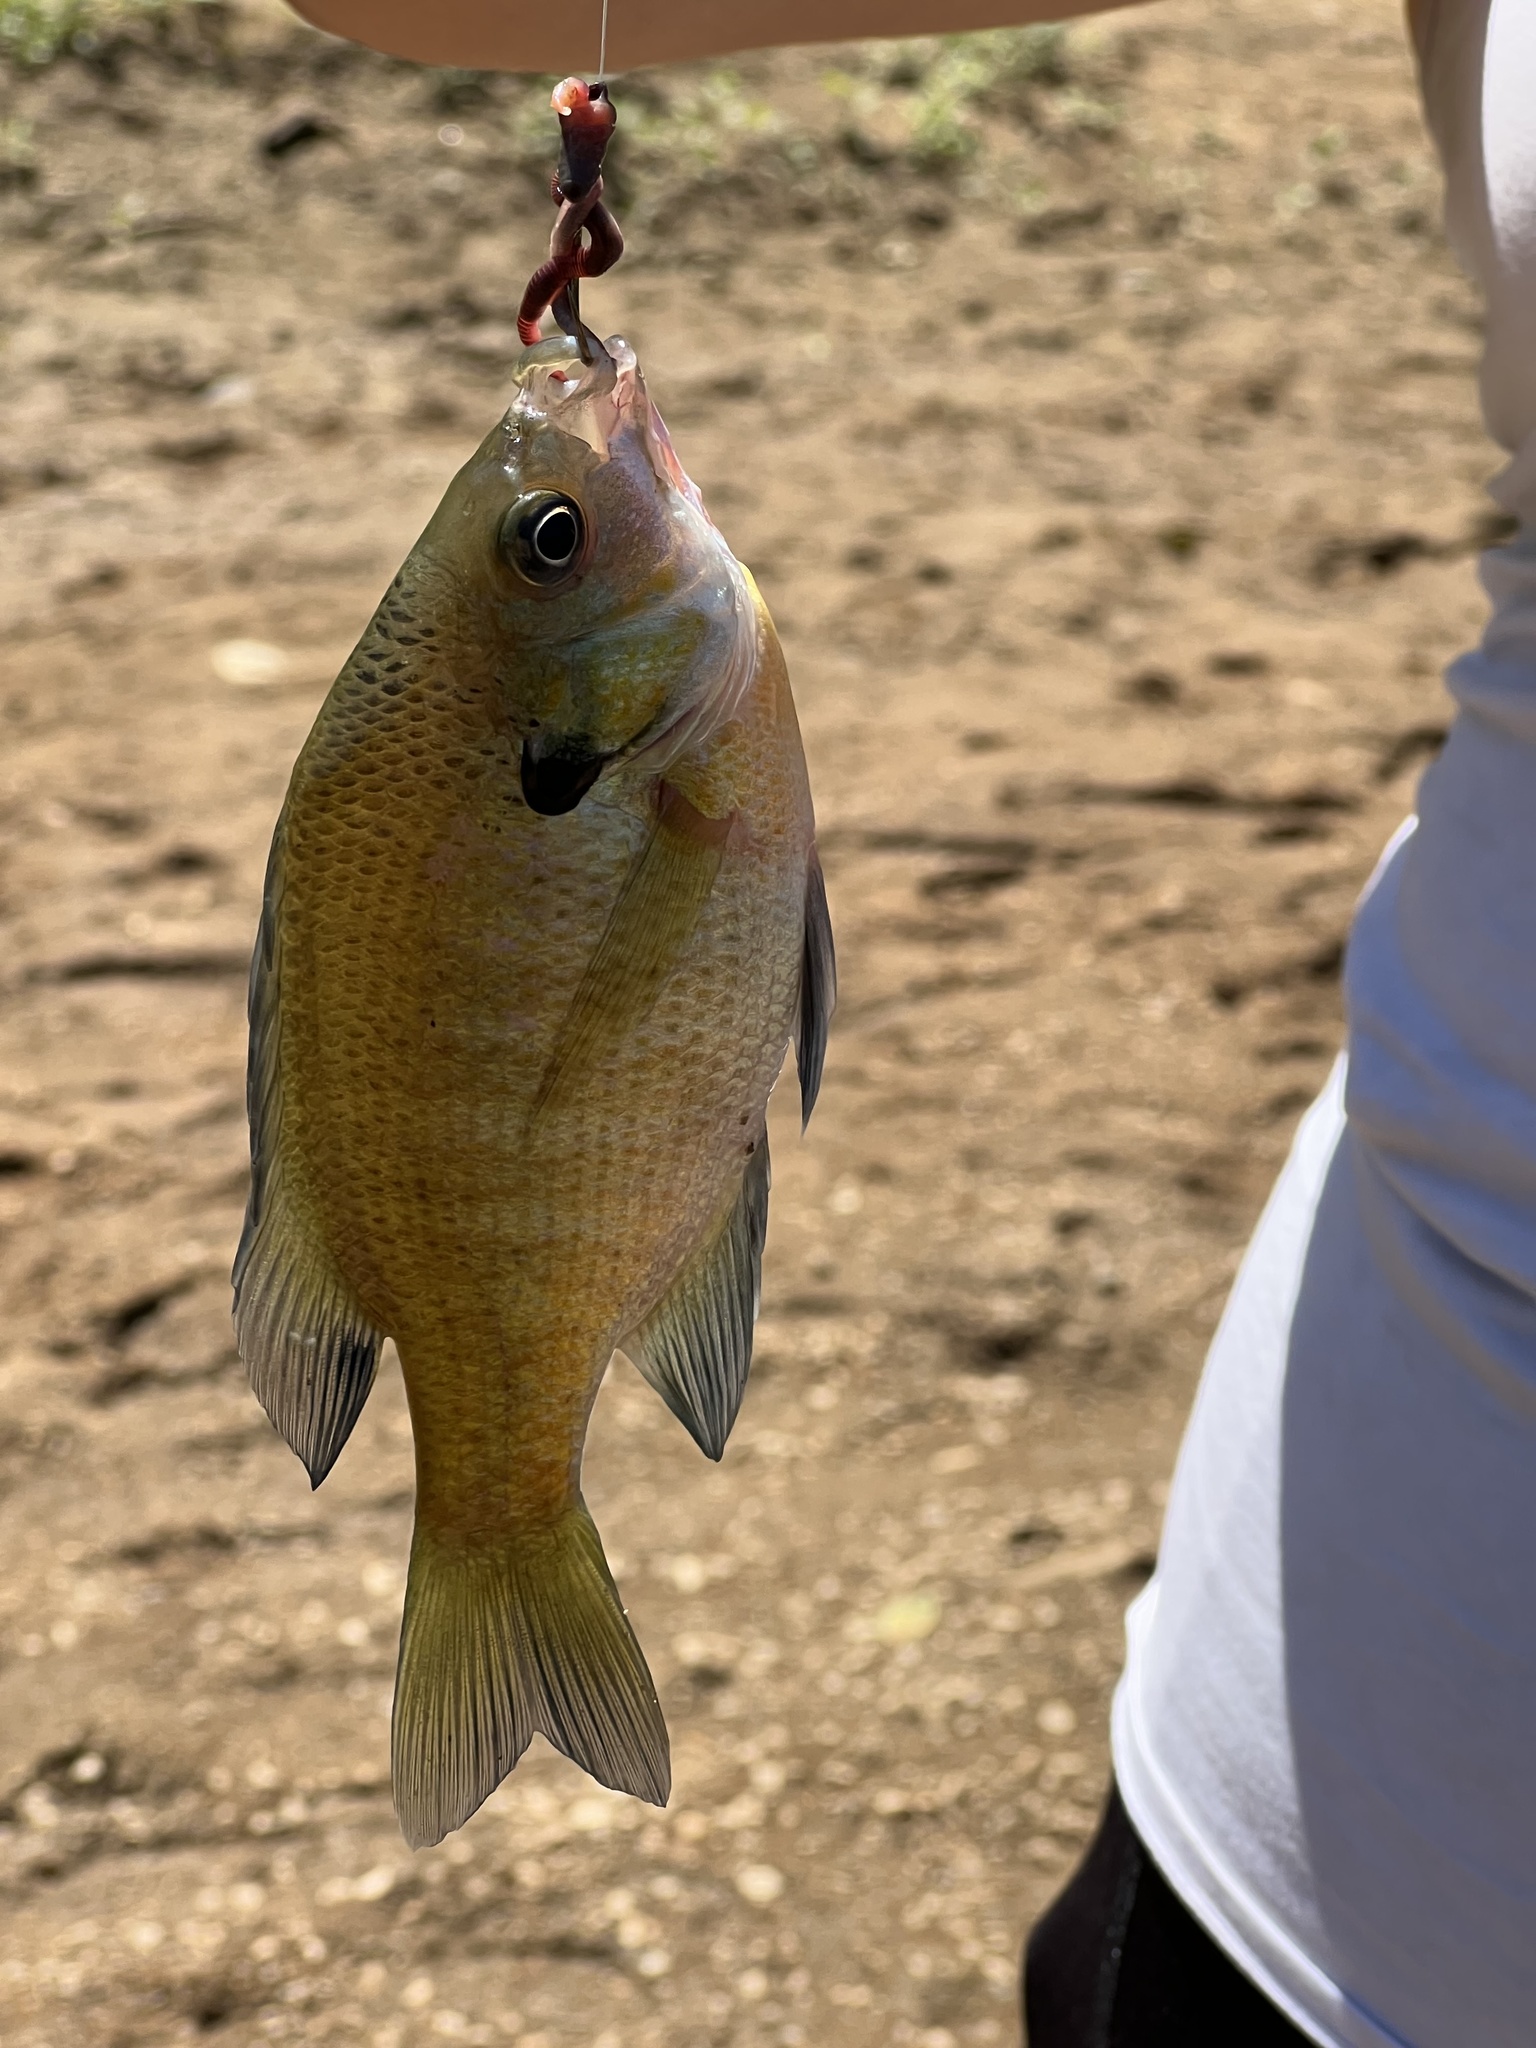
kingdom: Animalia
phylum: Chordata
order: Perciformes
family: Centrarchidae
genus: Lepomis
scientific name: Lepomis macrochirus
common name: Bluegill
